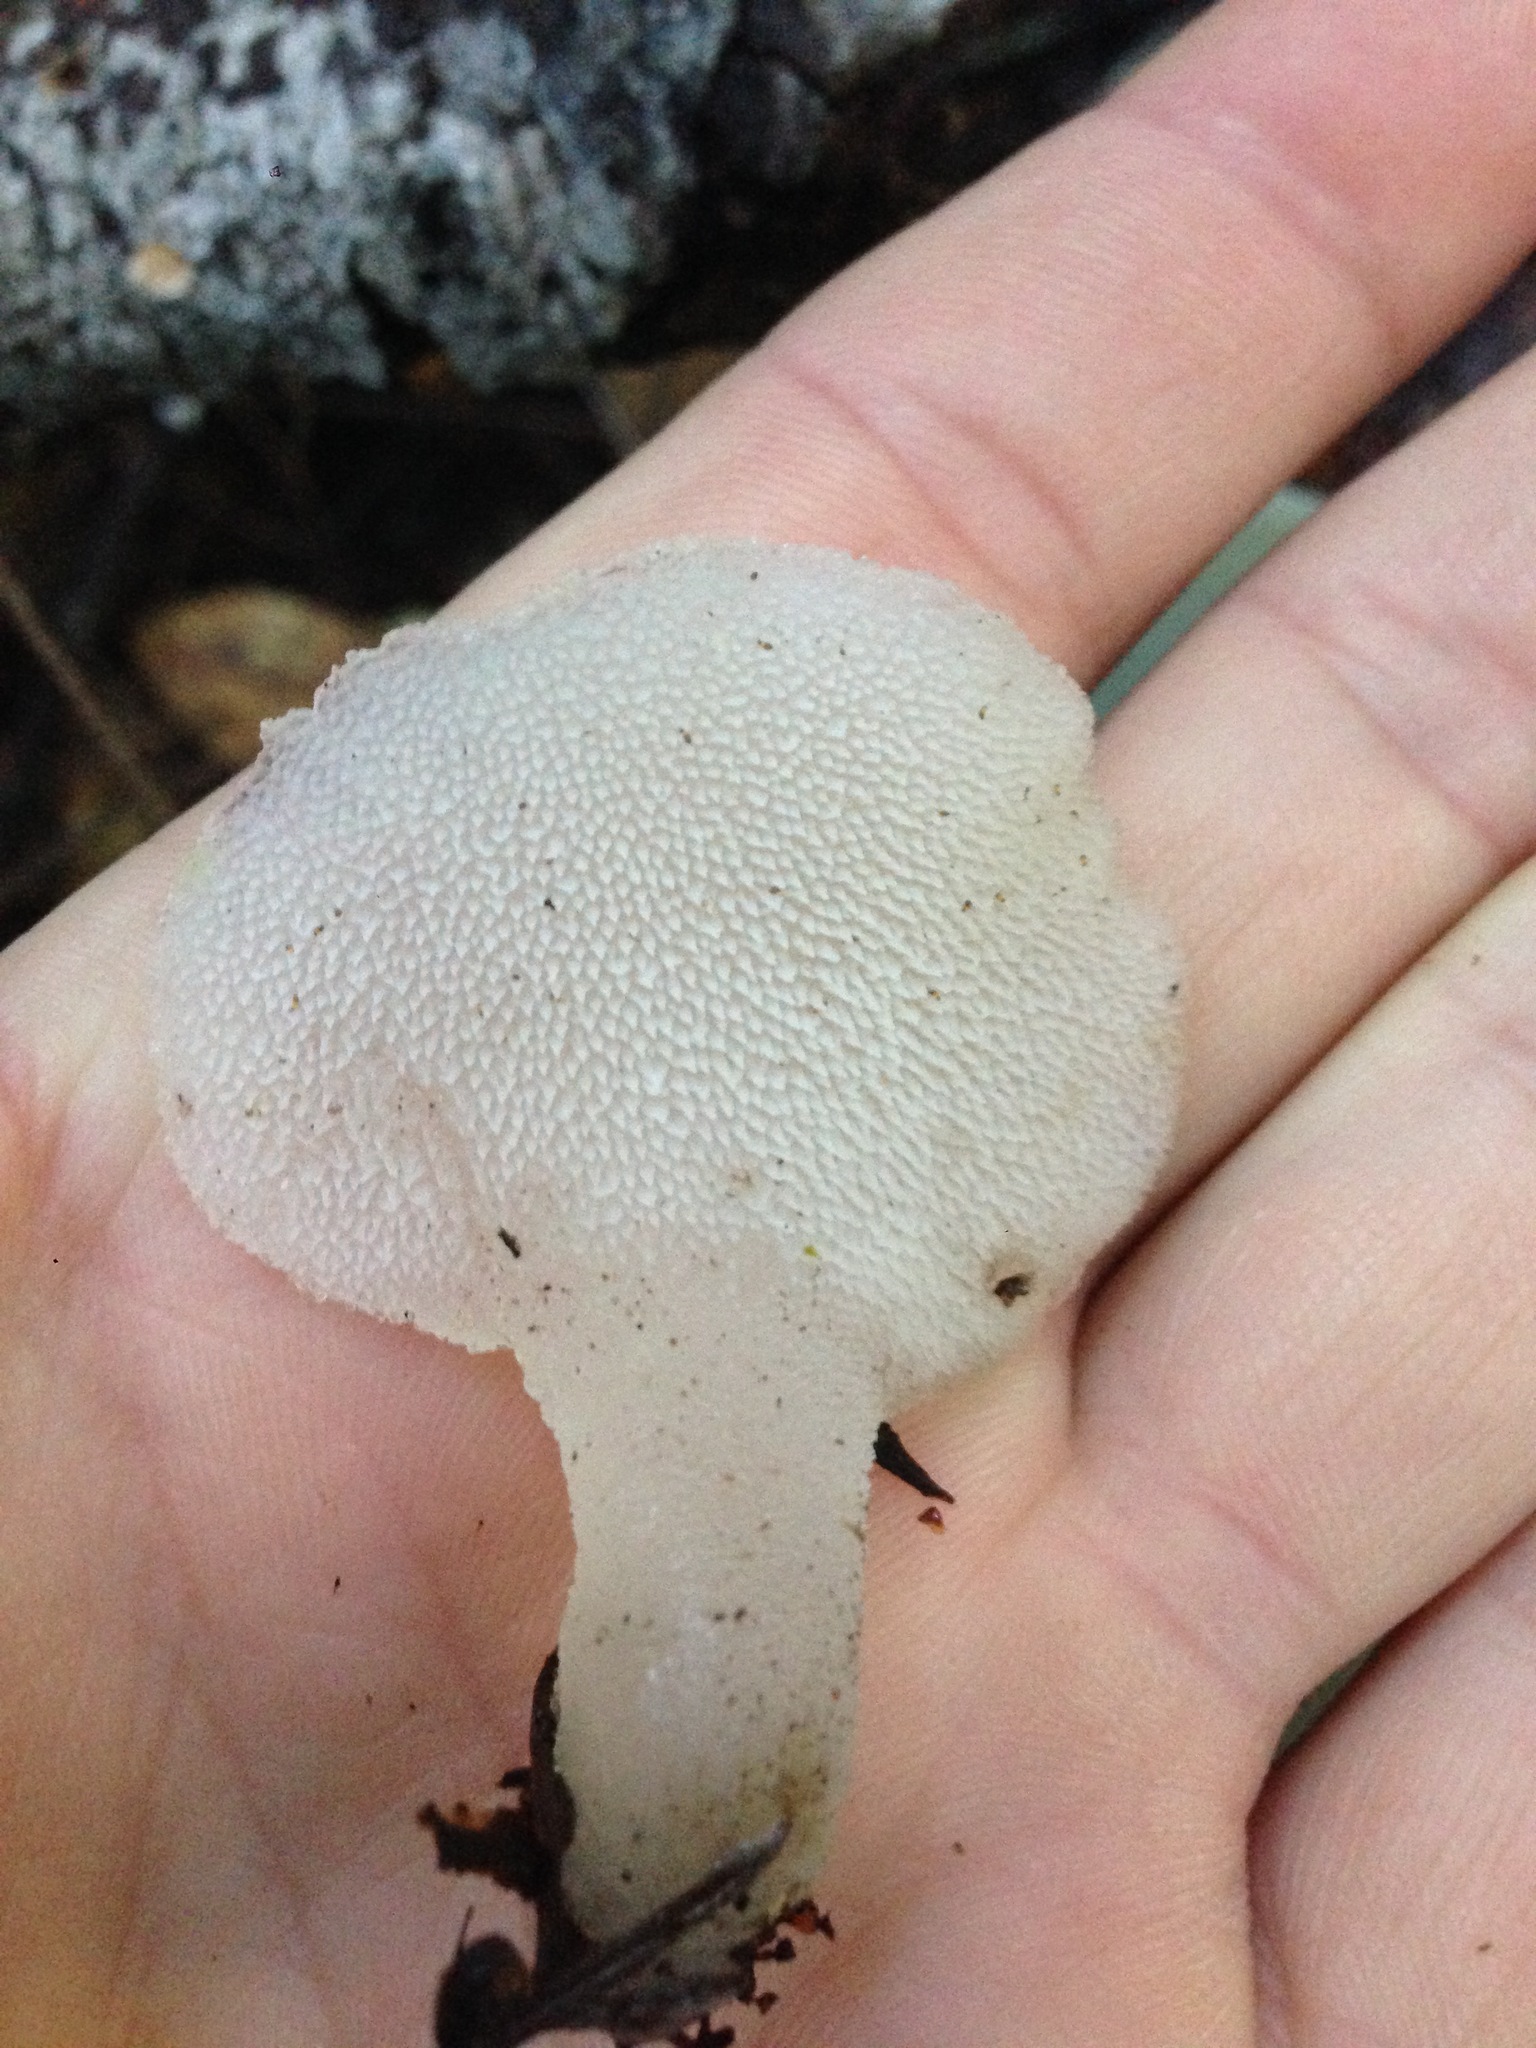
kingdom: Fungi
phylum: Basidiomycota
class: Agaricomycetes
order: Auriculariales
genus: Pseudohydnum
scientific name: Pseudohydnum gelatinosum
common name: Jelly tongue
